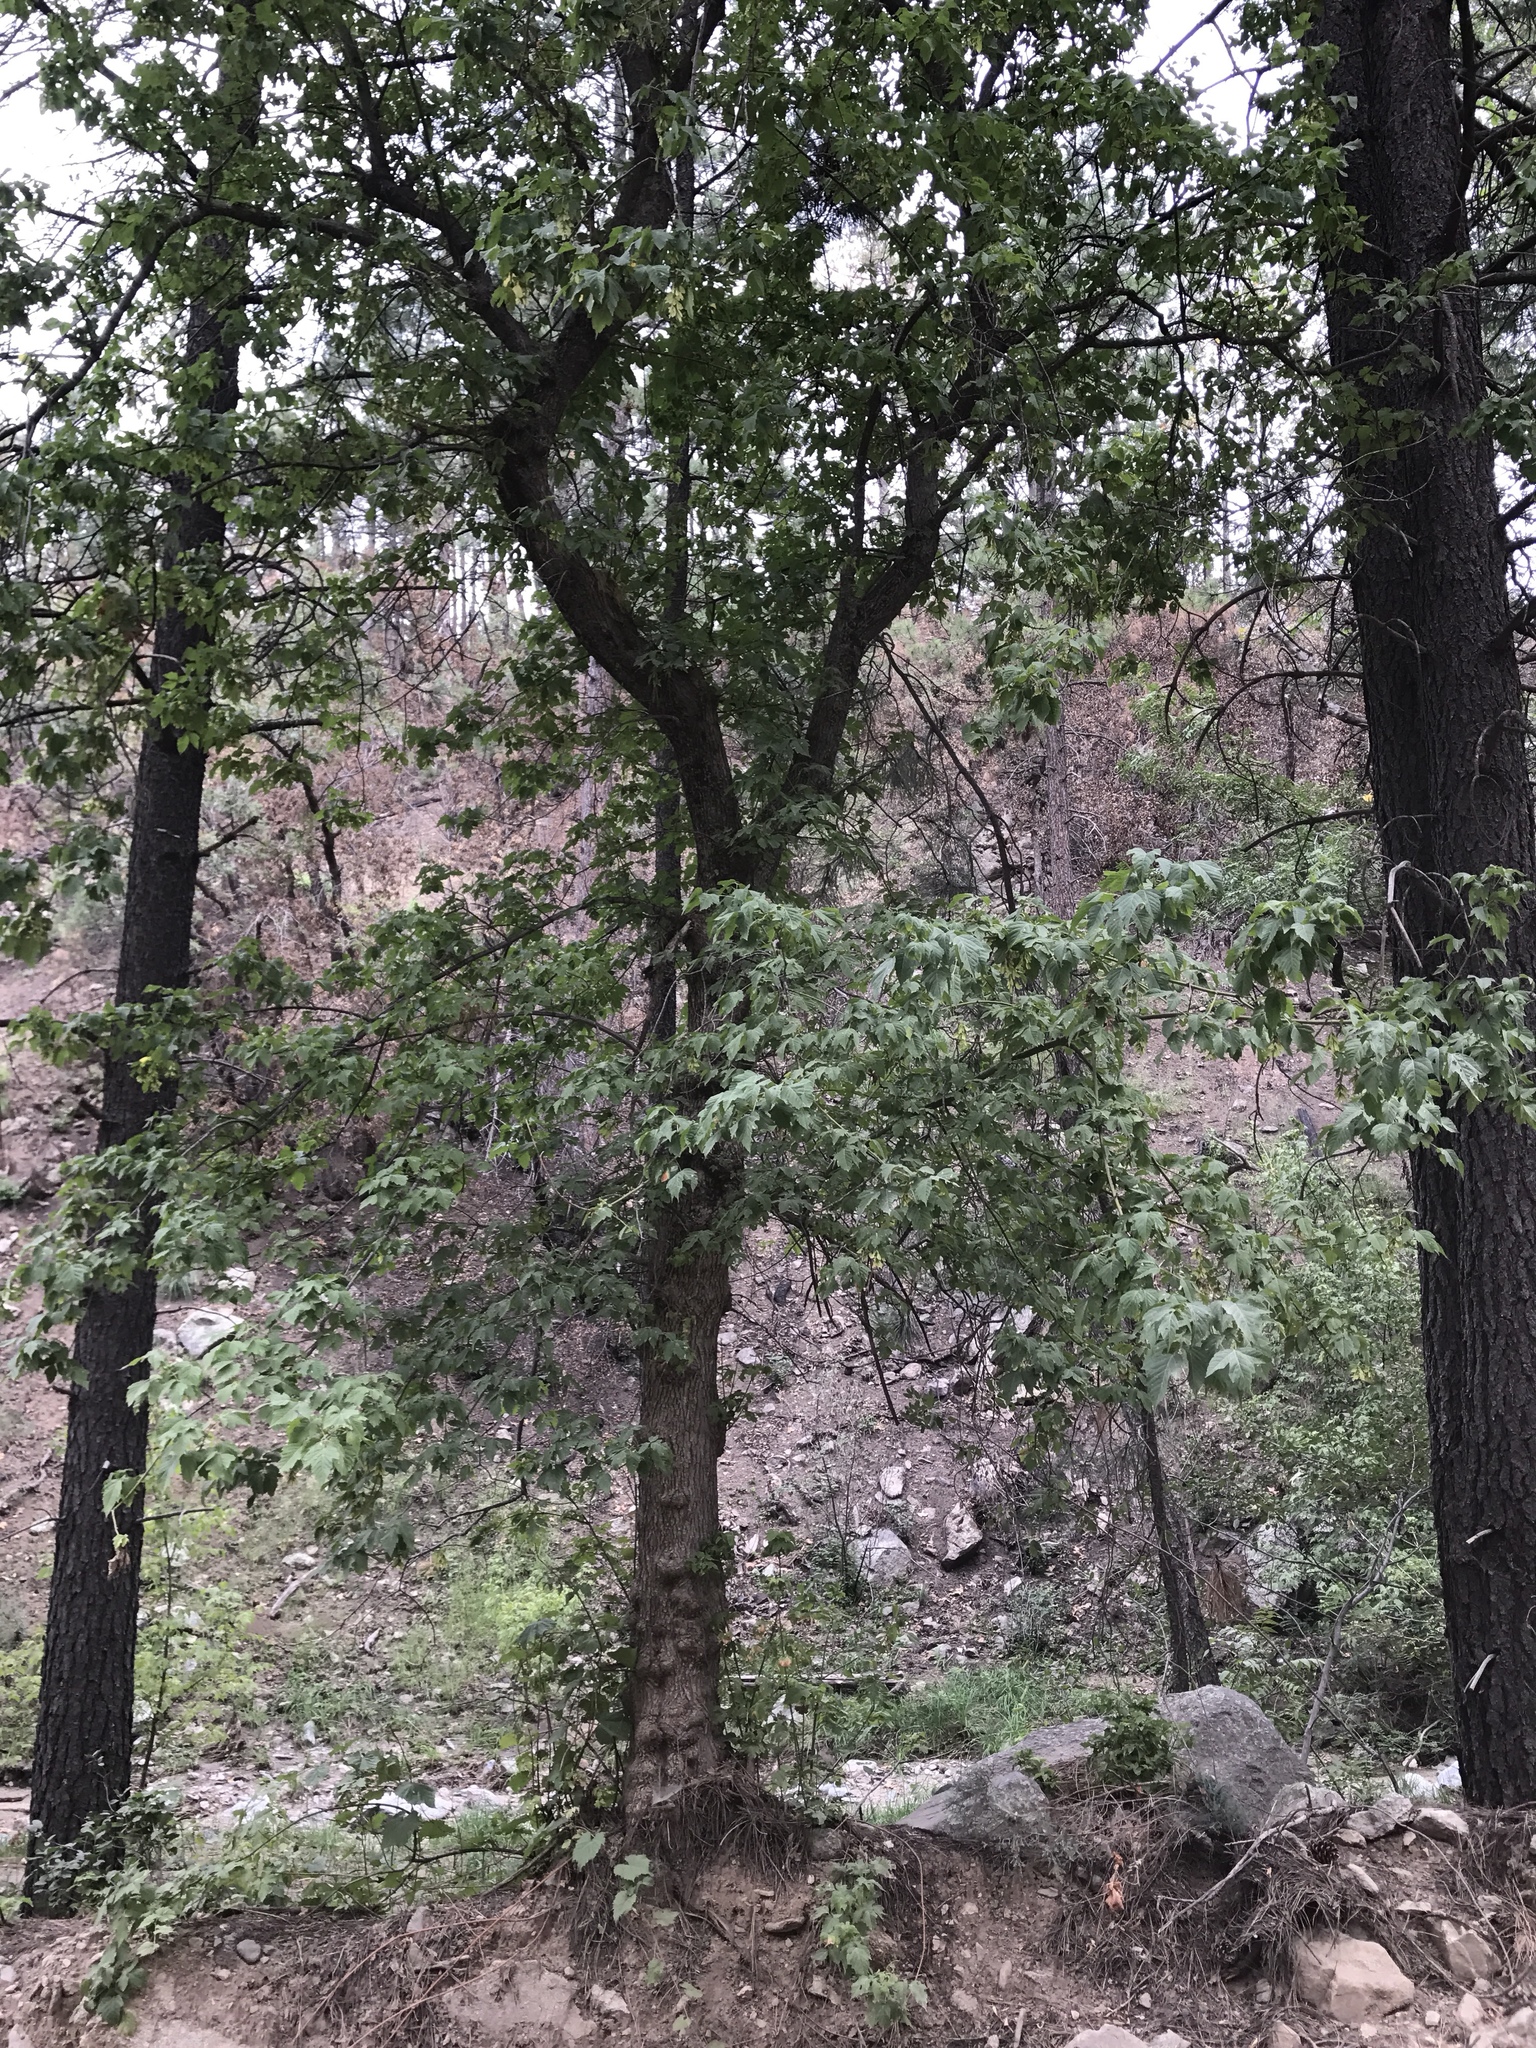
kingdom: Plantae
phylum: Tracheophyta
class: Magnoliopsida
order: Sapindales
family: Sapindaceae
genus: Acer
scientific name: Acer negundo
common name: Ashleaf maple
